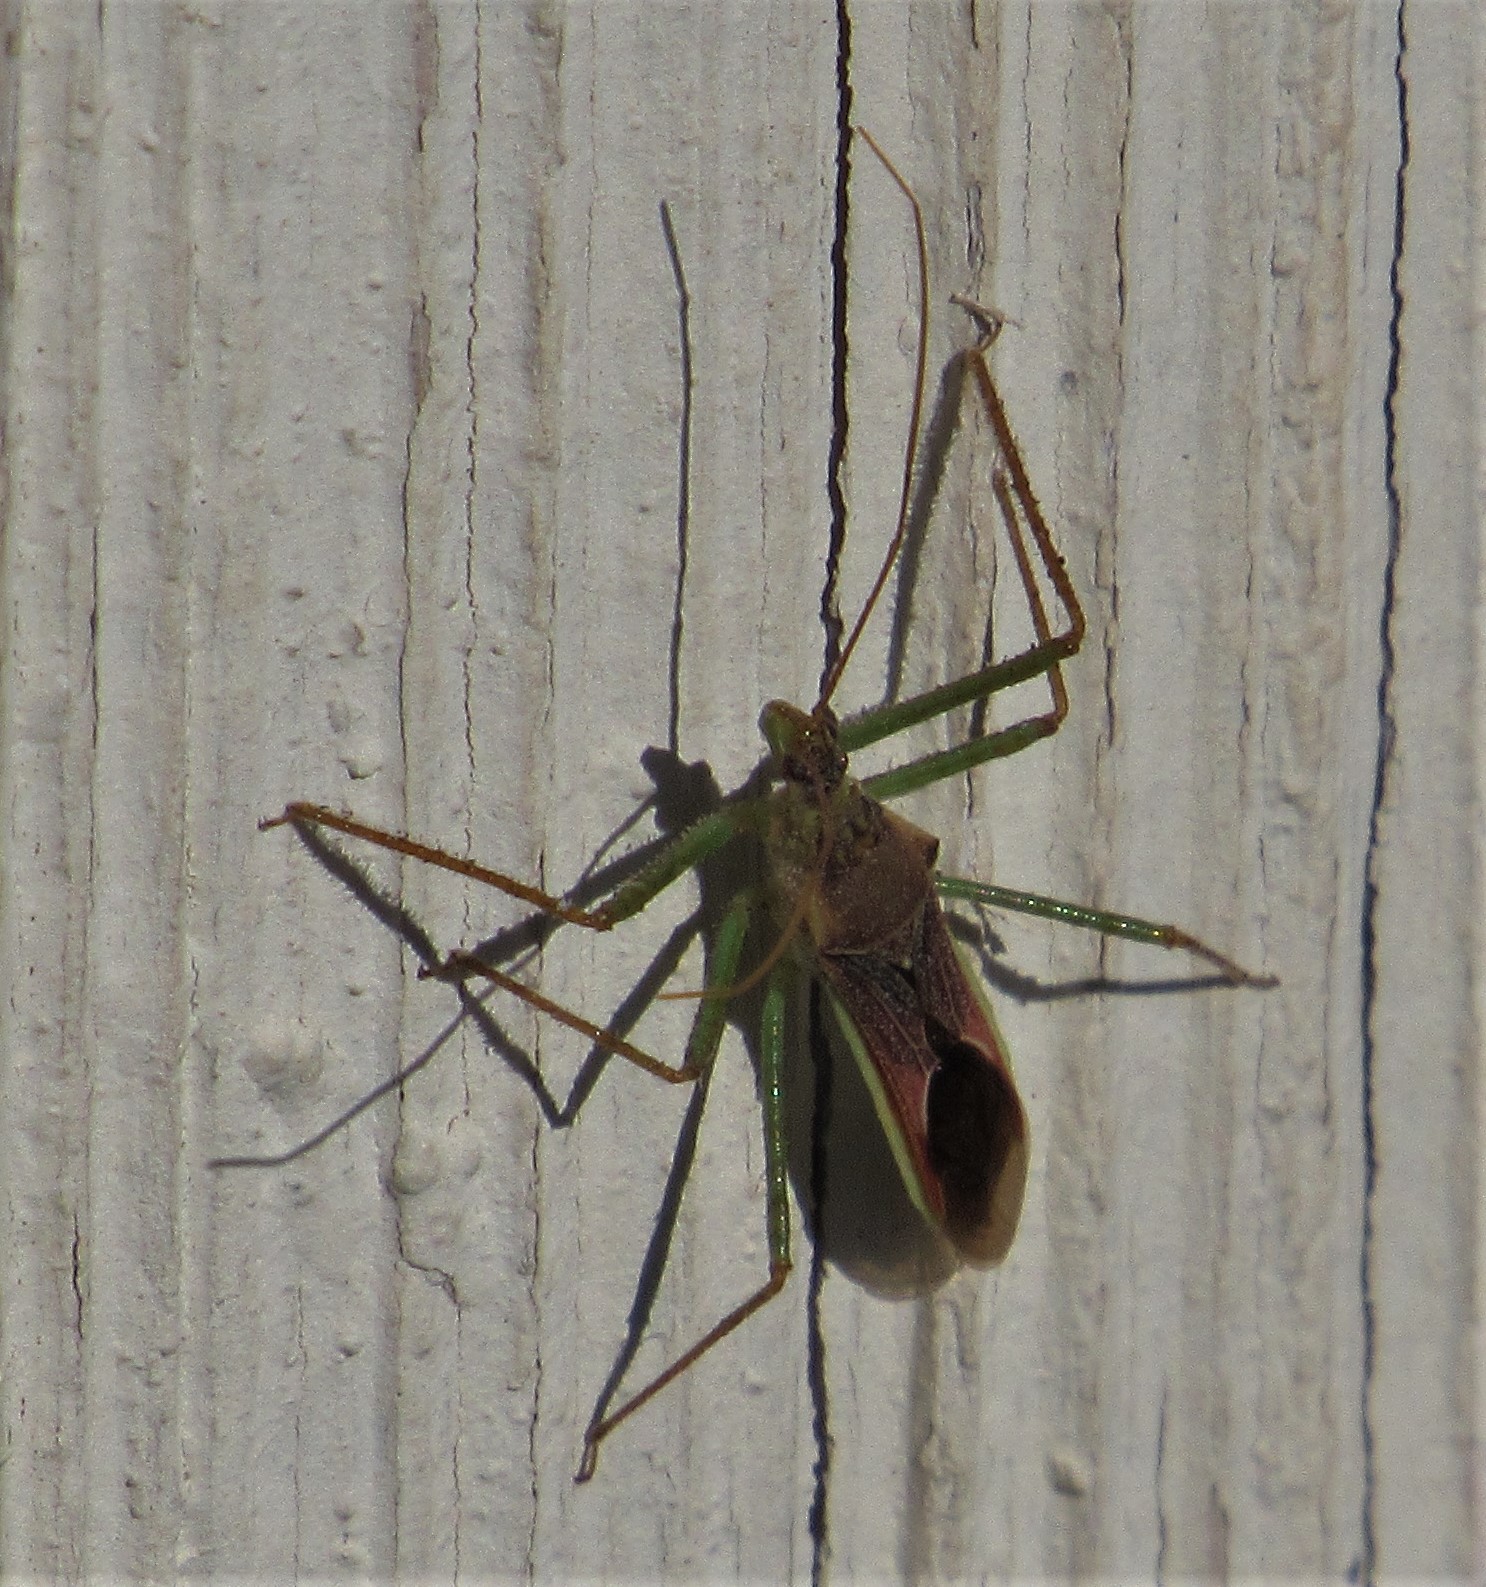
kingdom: Animalia
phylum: Arthropoda
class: Insecta
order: Hemiptera
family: Reduviidae
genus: Zelus
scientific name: Zelus renardii
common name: Assassin bug
